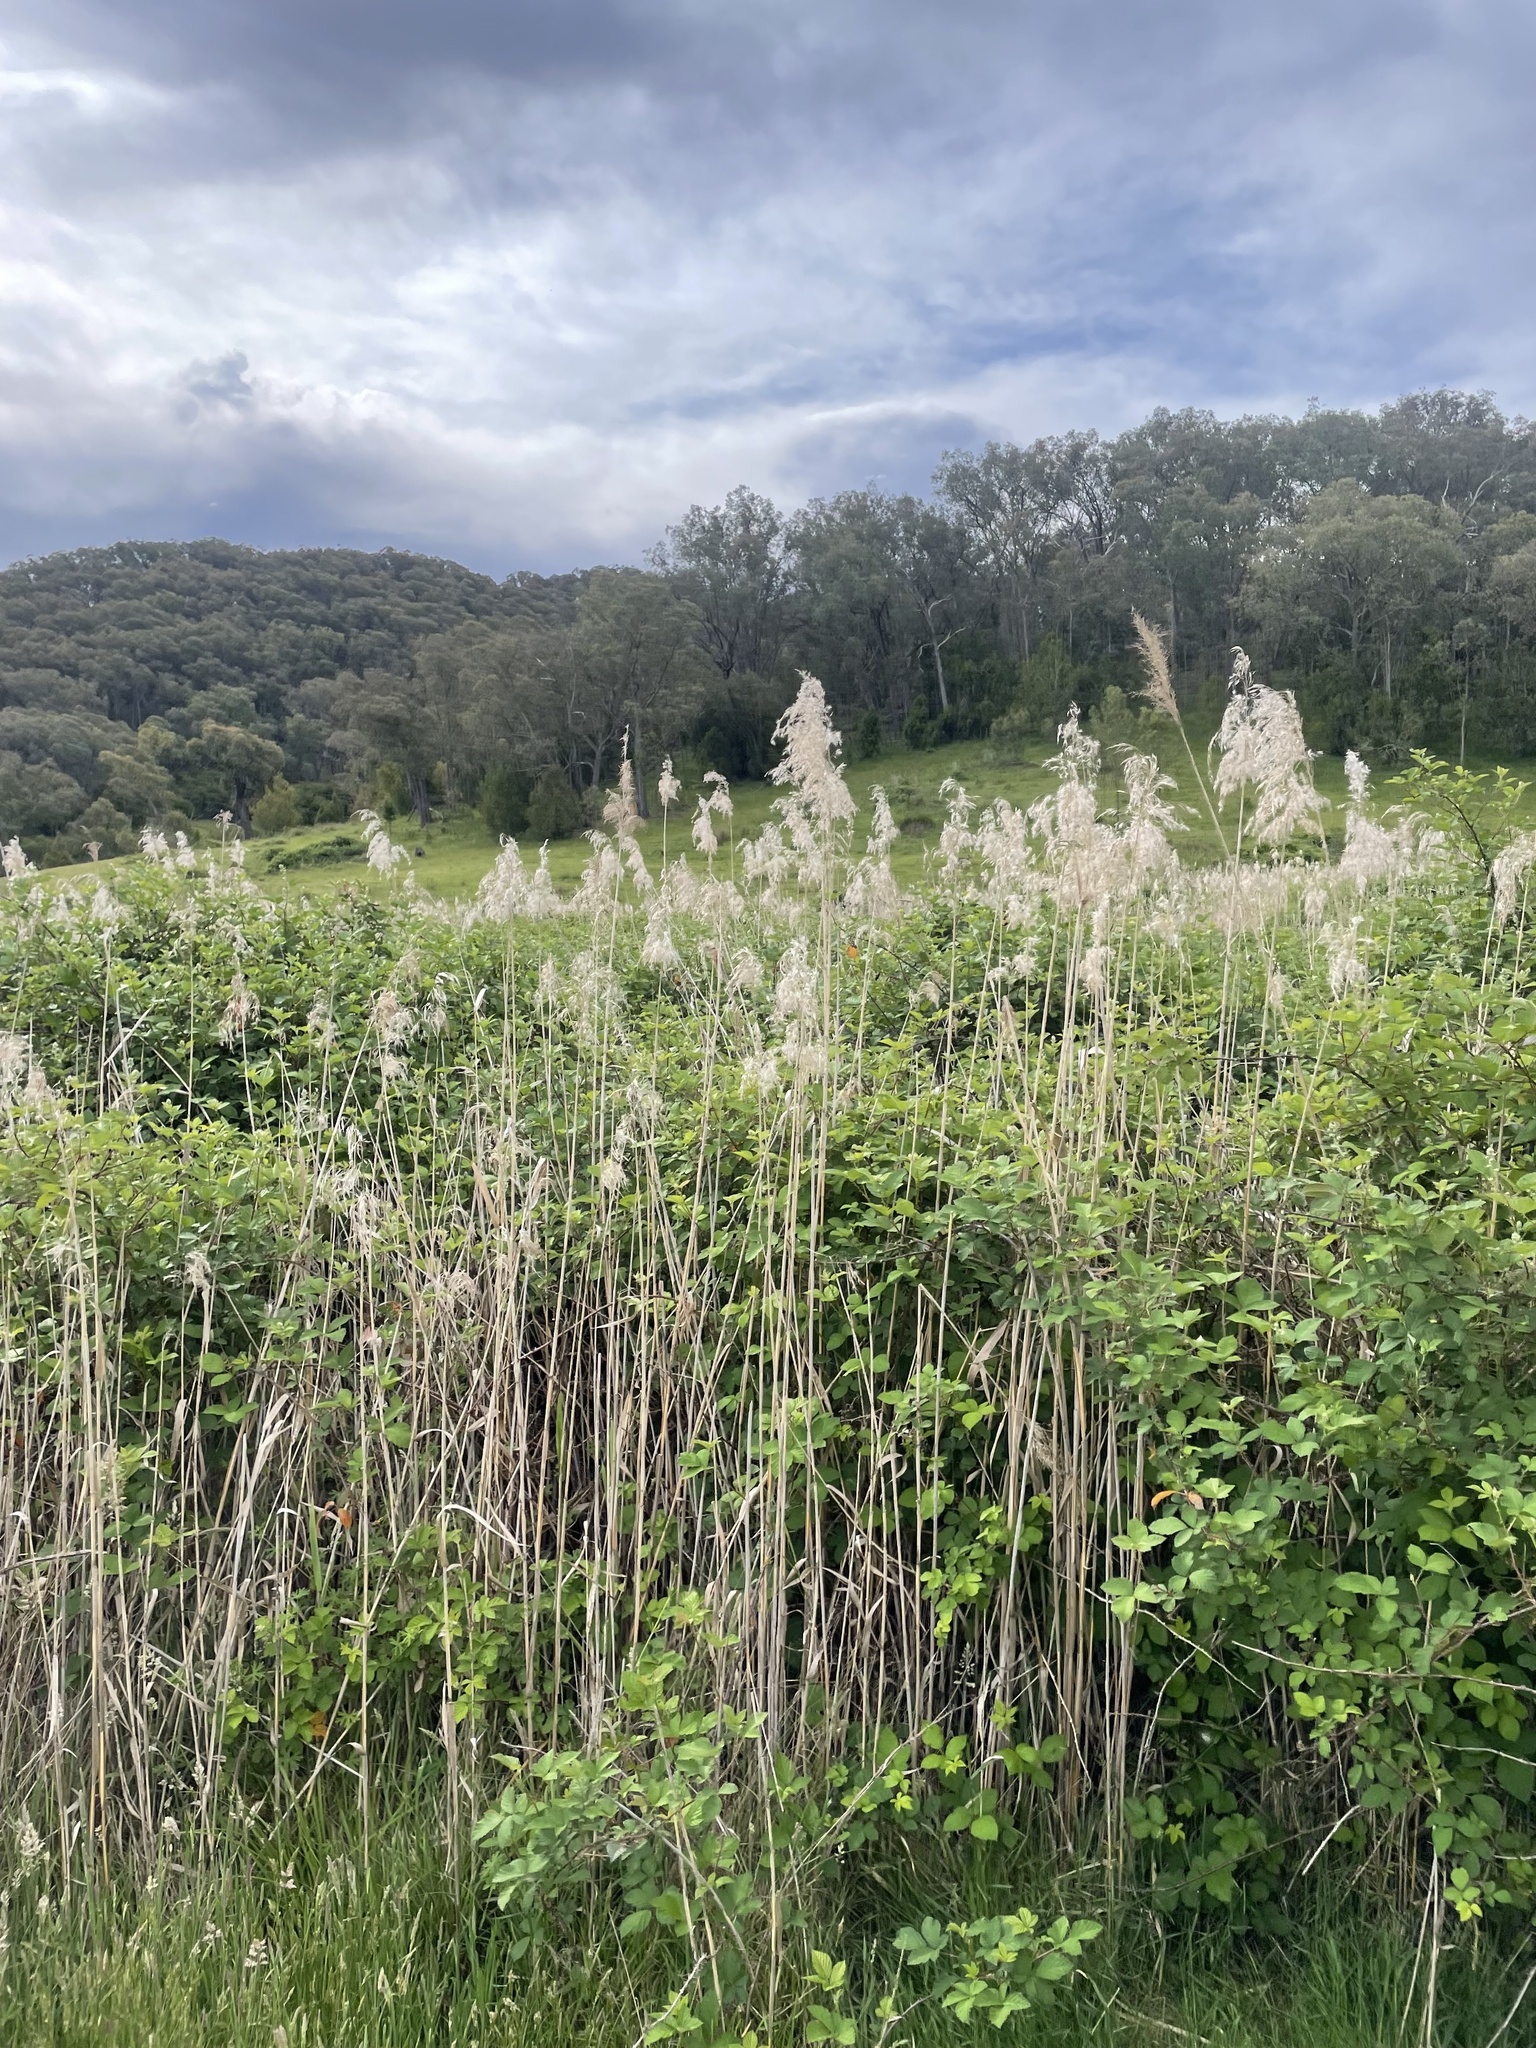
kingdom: Plantae
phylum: Tracheophyta
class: Liliopsida
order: Poales
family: Poaceae
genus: Phragmites
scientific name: Phragmites australis
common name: Common reed
